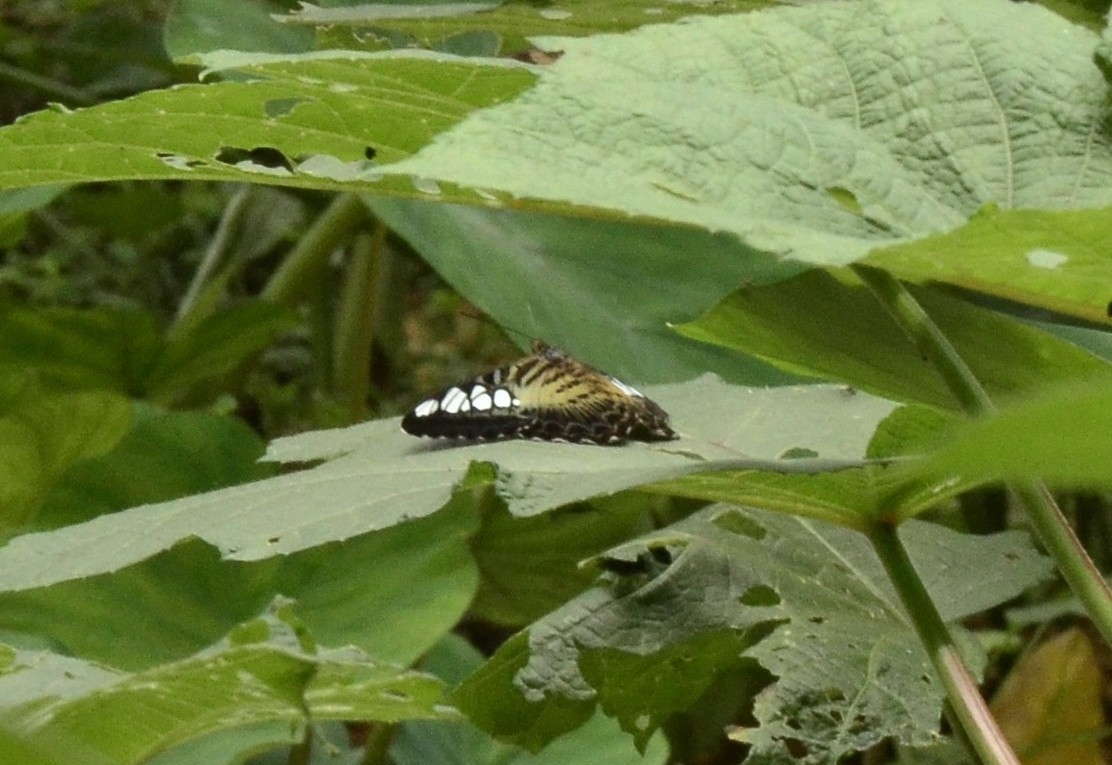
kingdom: Animalia
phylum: Arthropoda
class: Insecta
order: Lepidoptera
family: Nymphalidae
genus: Kallima
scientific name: Kallima sylvia
